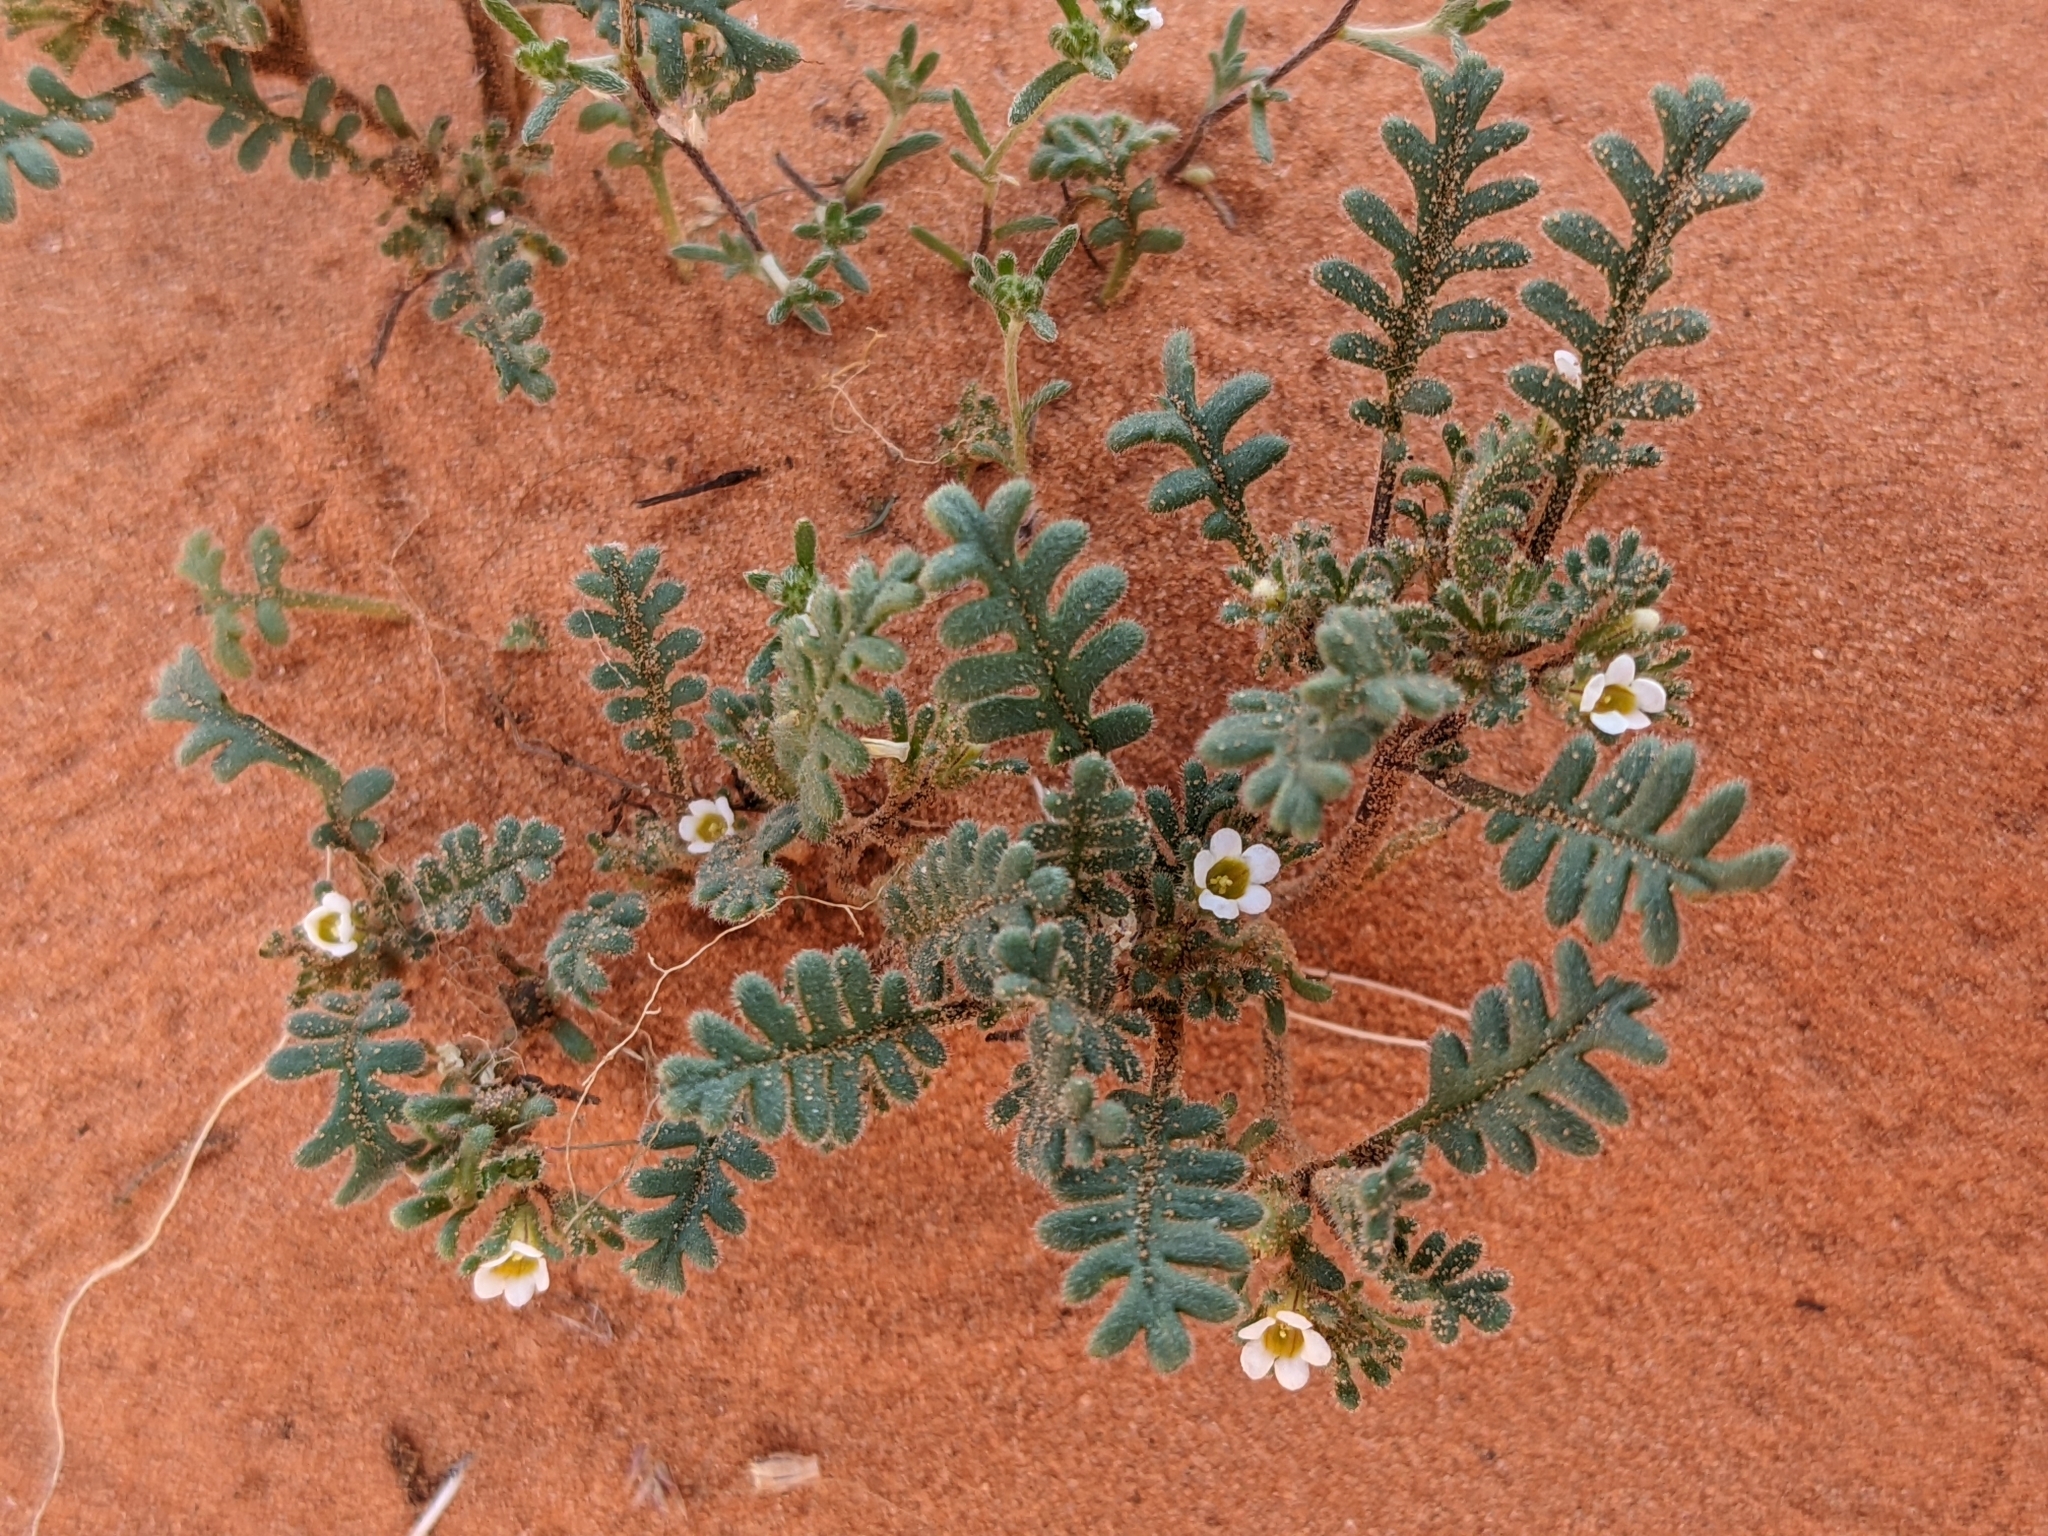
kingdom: Plantae
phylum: Tracheophyta
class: Magnoliopsida
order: Boraginales
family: Hydrophyllaceae
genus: Phacelia
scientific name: Phacelia ivesiana
